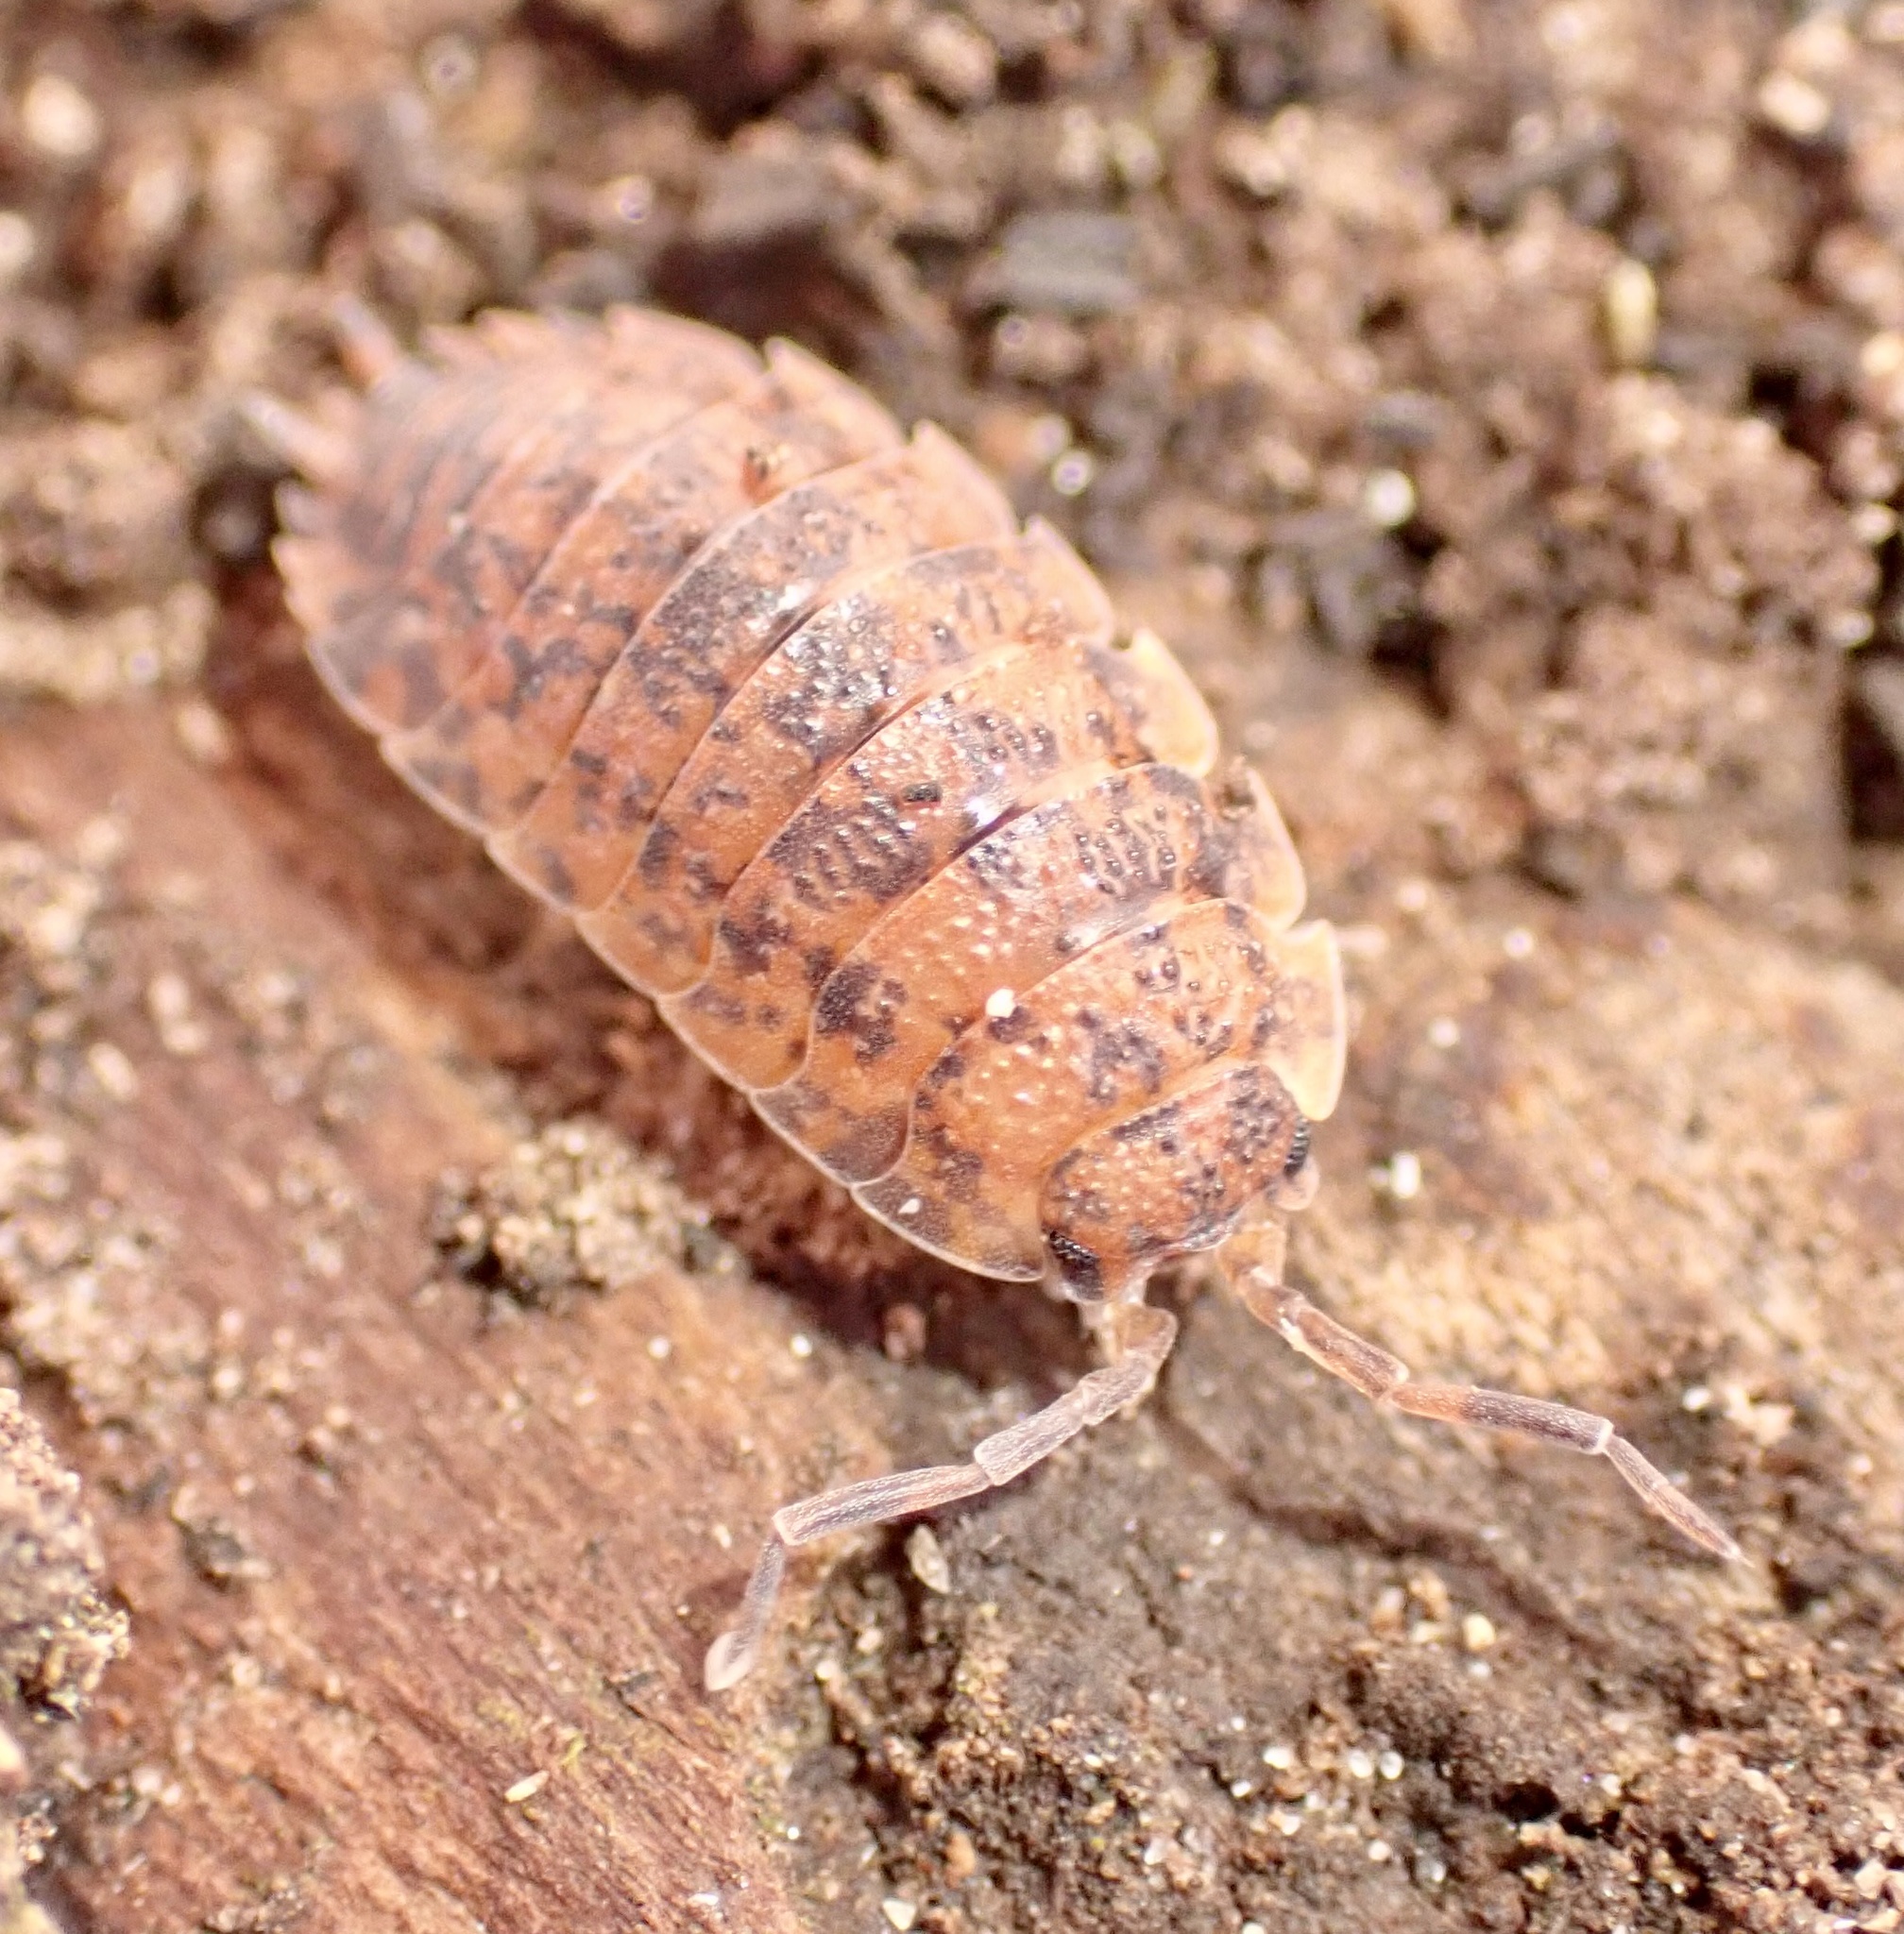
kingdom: Animalia
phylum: Arthropoda
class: Malacostraca
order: Isopoda
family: Porcellionidae
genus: Porcellio
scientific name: Porcellio scaber
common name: Common rough woodlouse
